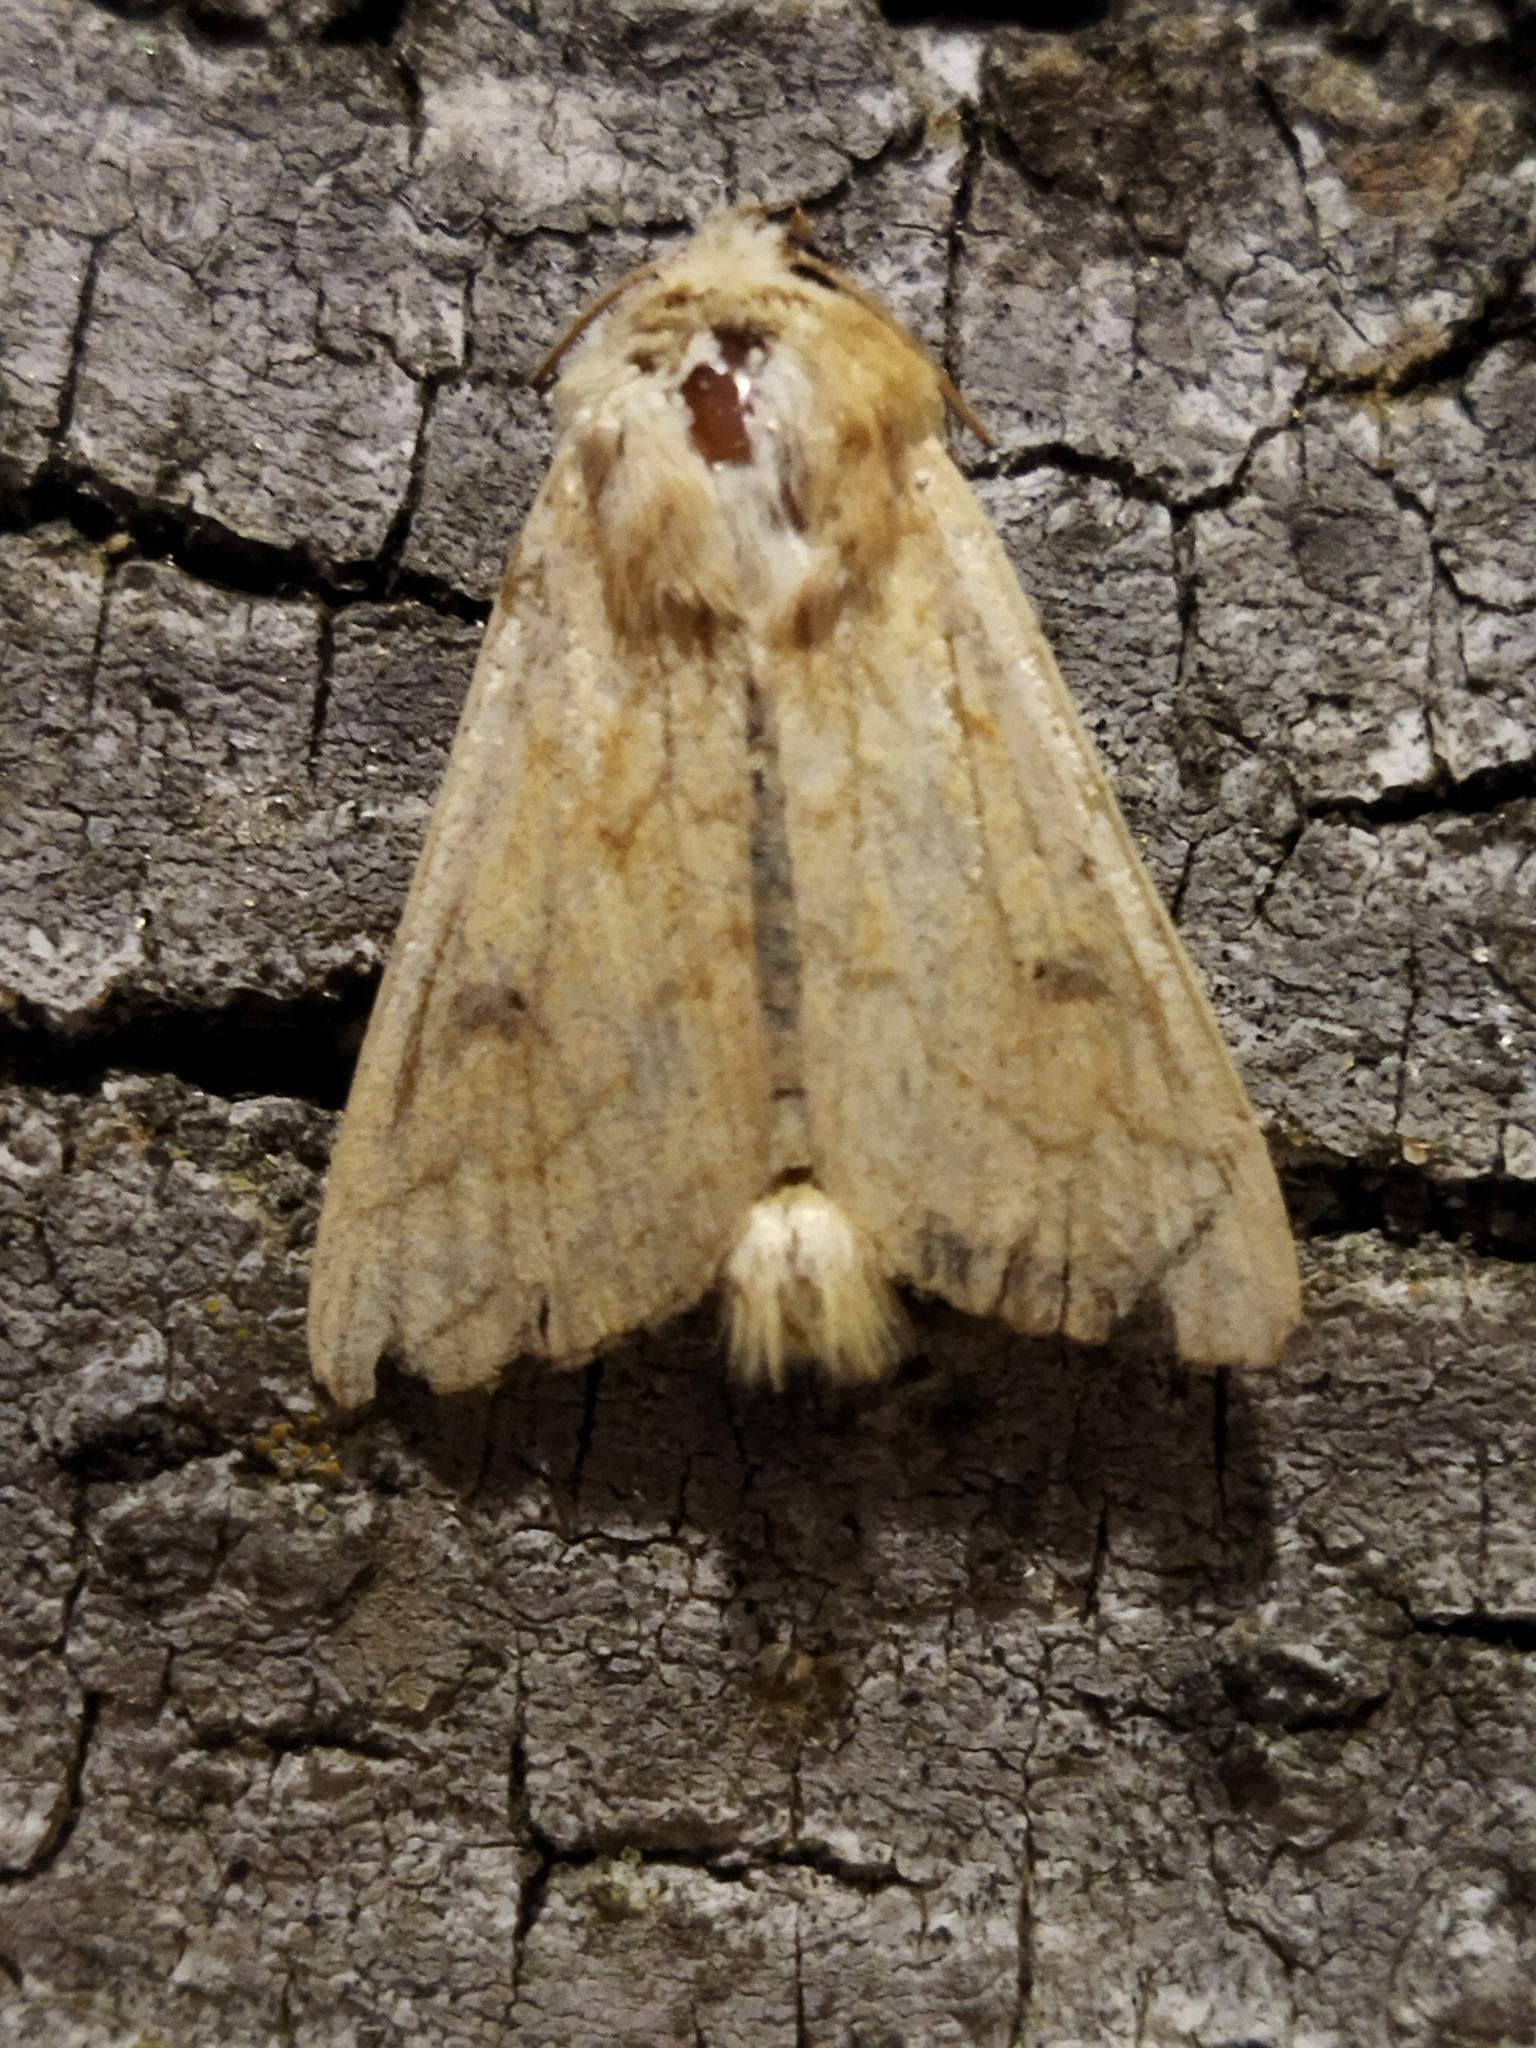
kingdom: Animalia
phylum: Arthropoda
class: Insecta
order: Lepidoptera
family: Noctuidae
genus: Mythimna
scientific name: Mythimna vitellina
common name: Delicate
